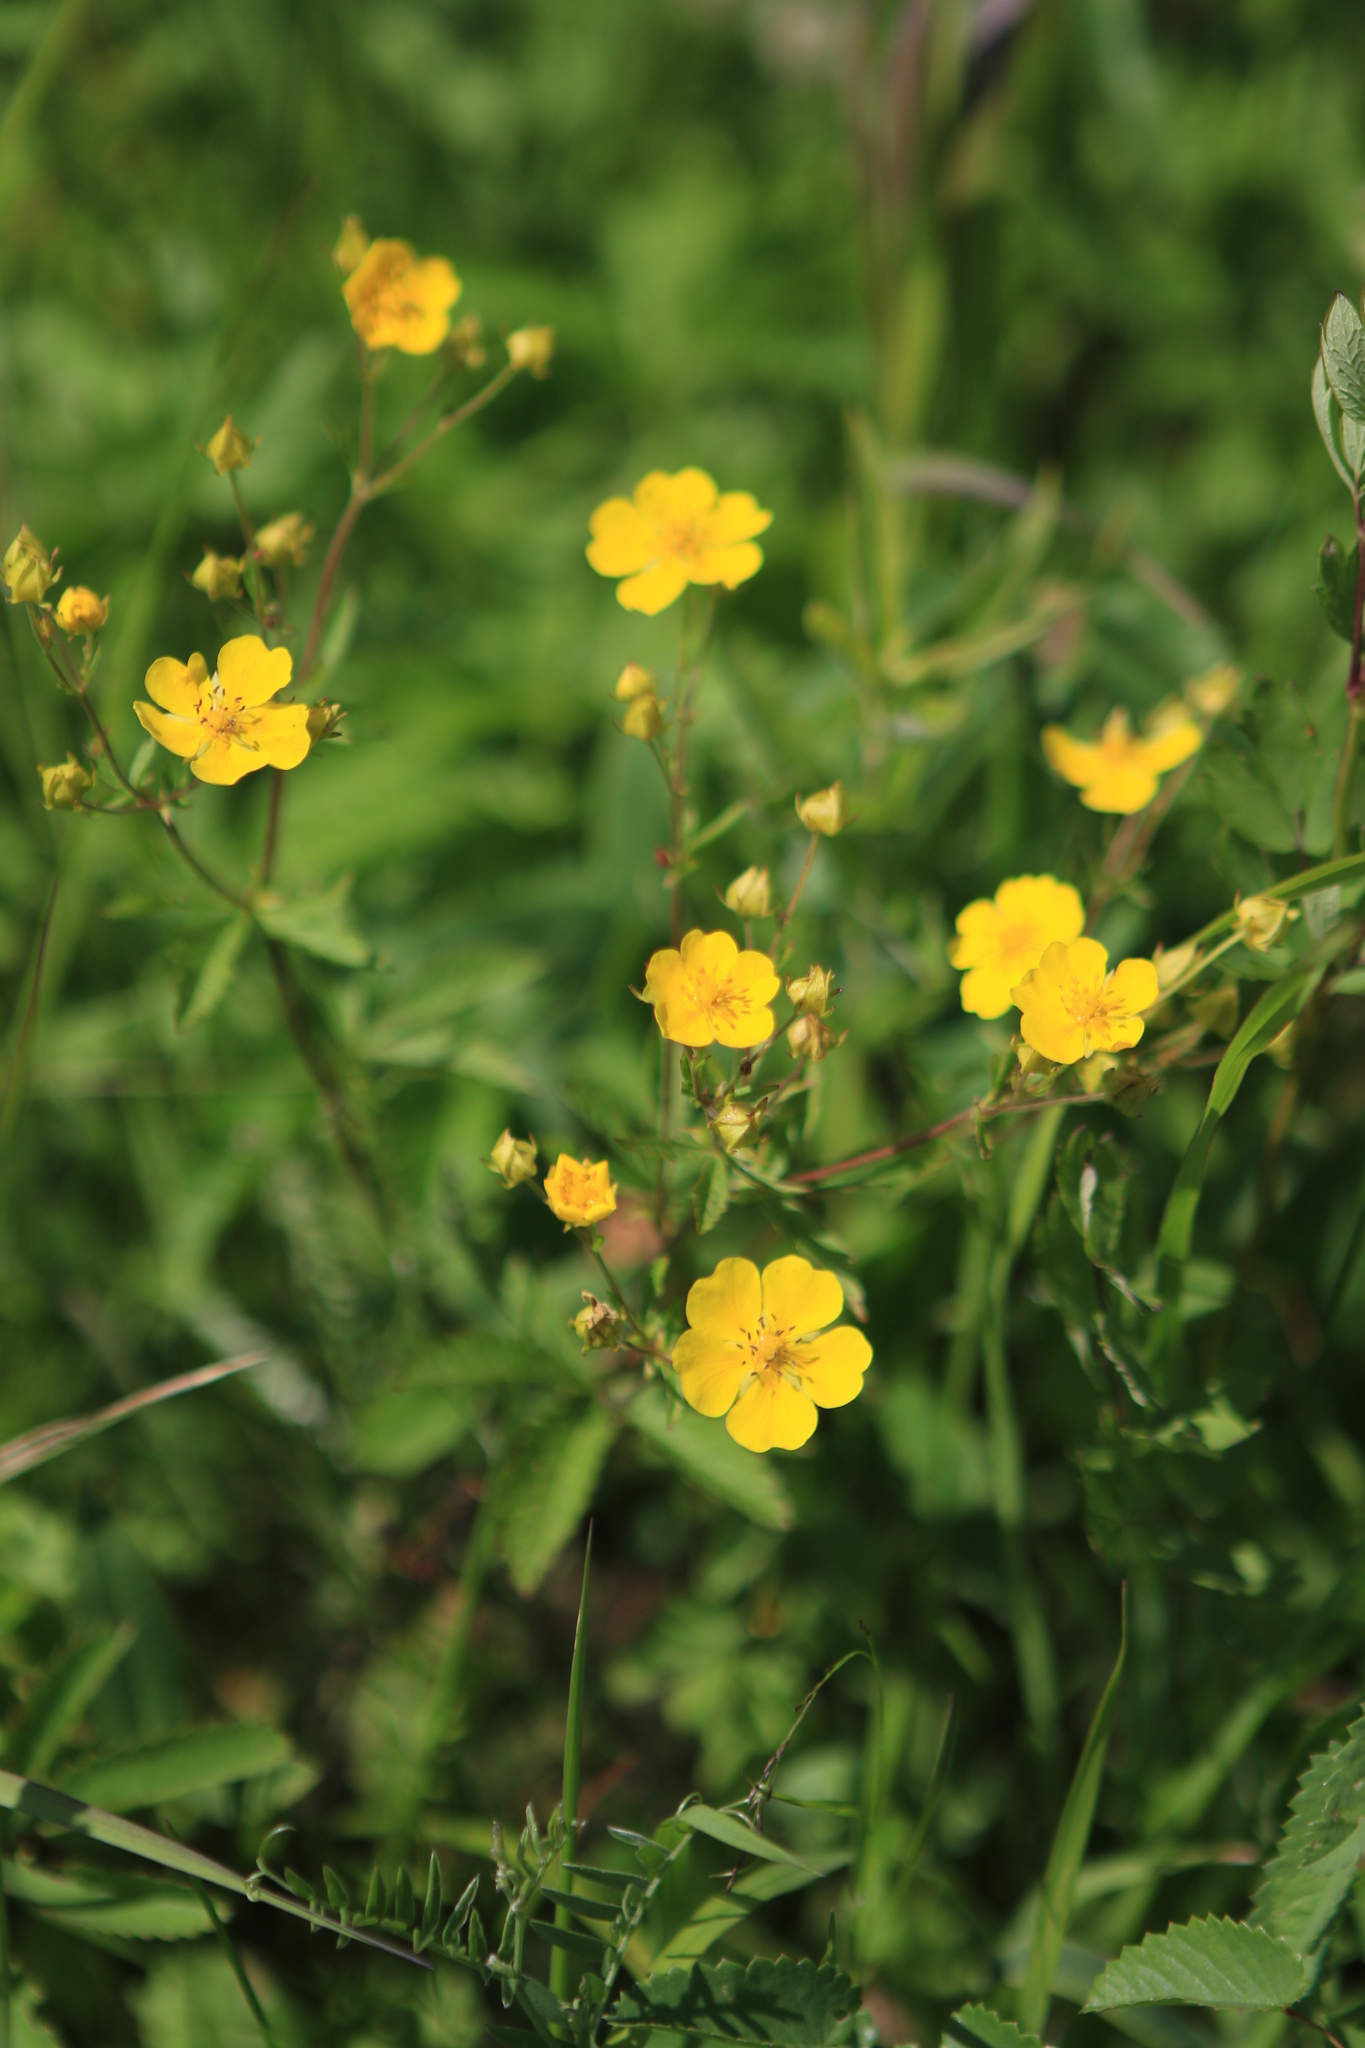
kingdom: Plantae
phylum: Tracheophyta
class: Magnoliopsida
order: Rosales
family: Rosaceae
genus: Potentilla
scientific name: Potentilla chrysantha
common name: Thuringian cinquefoil
